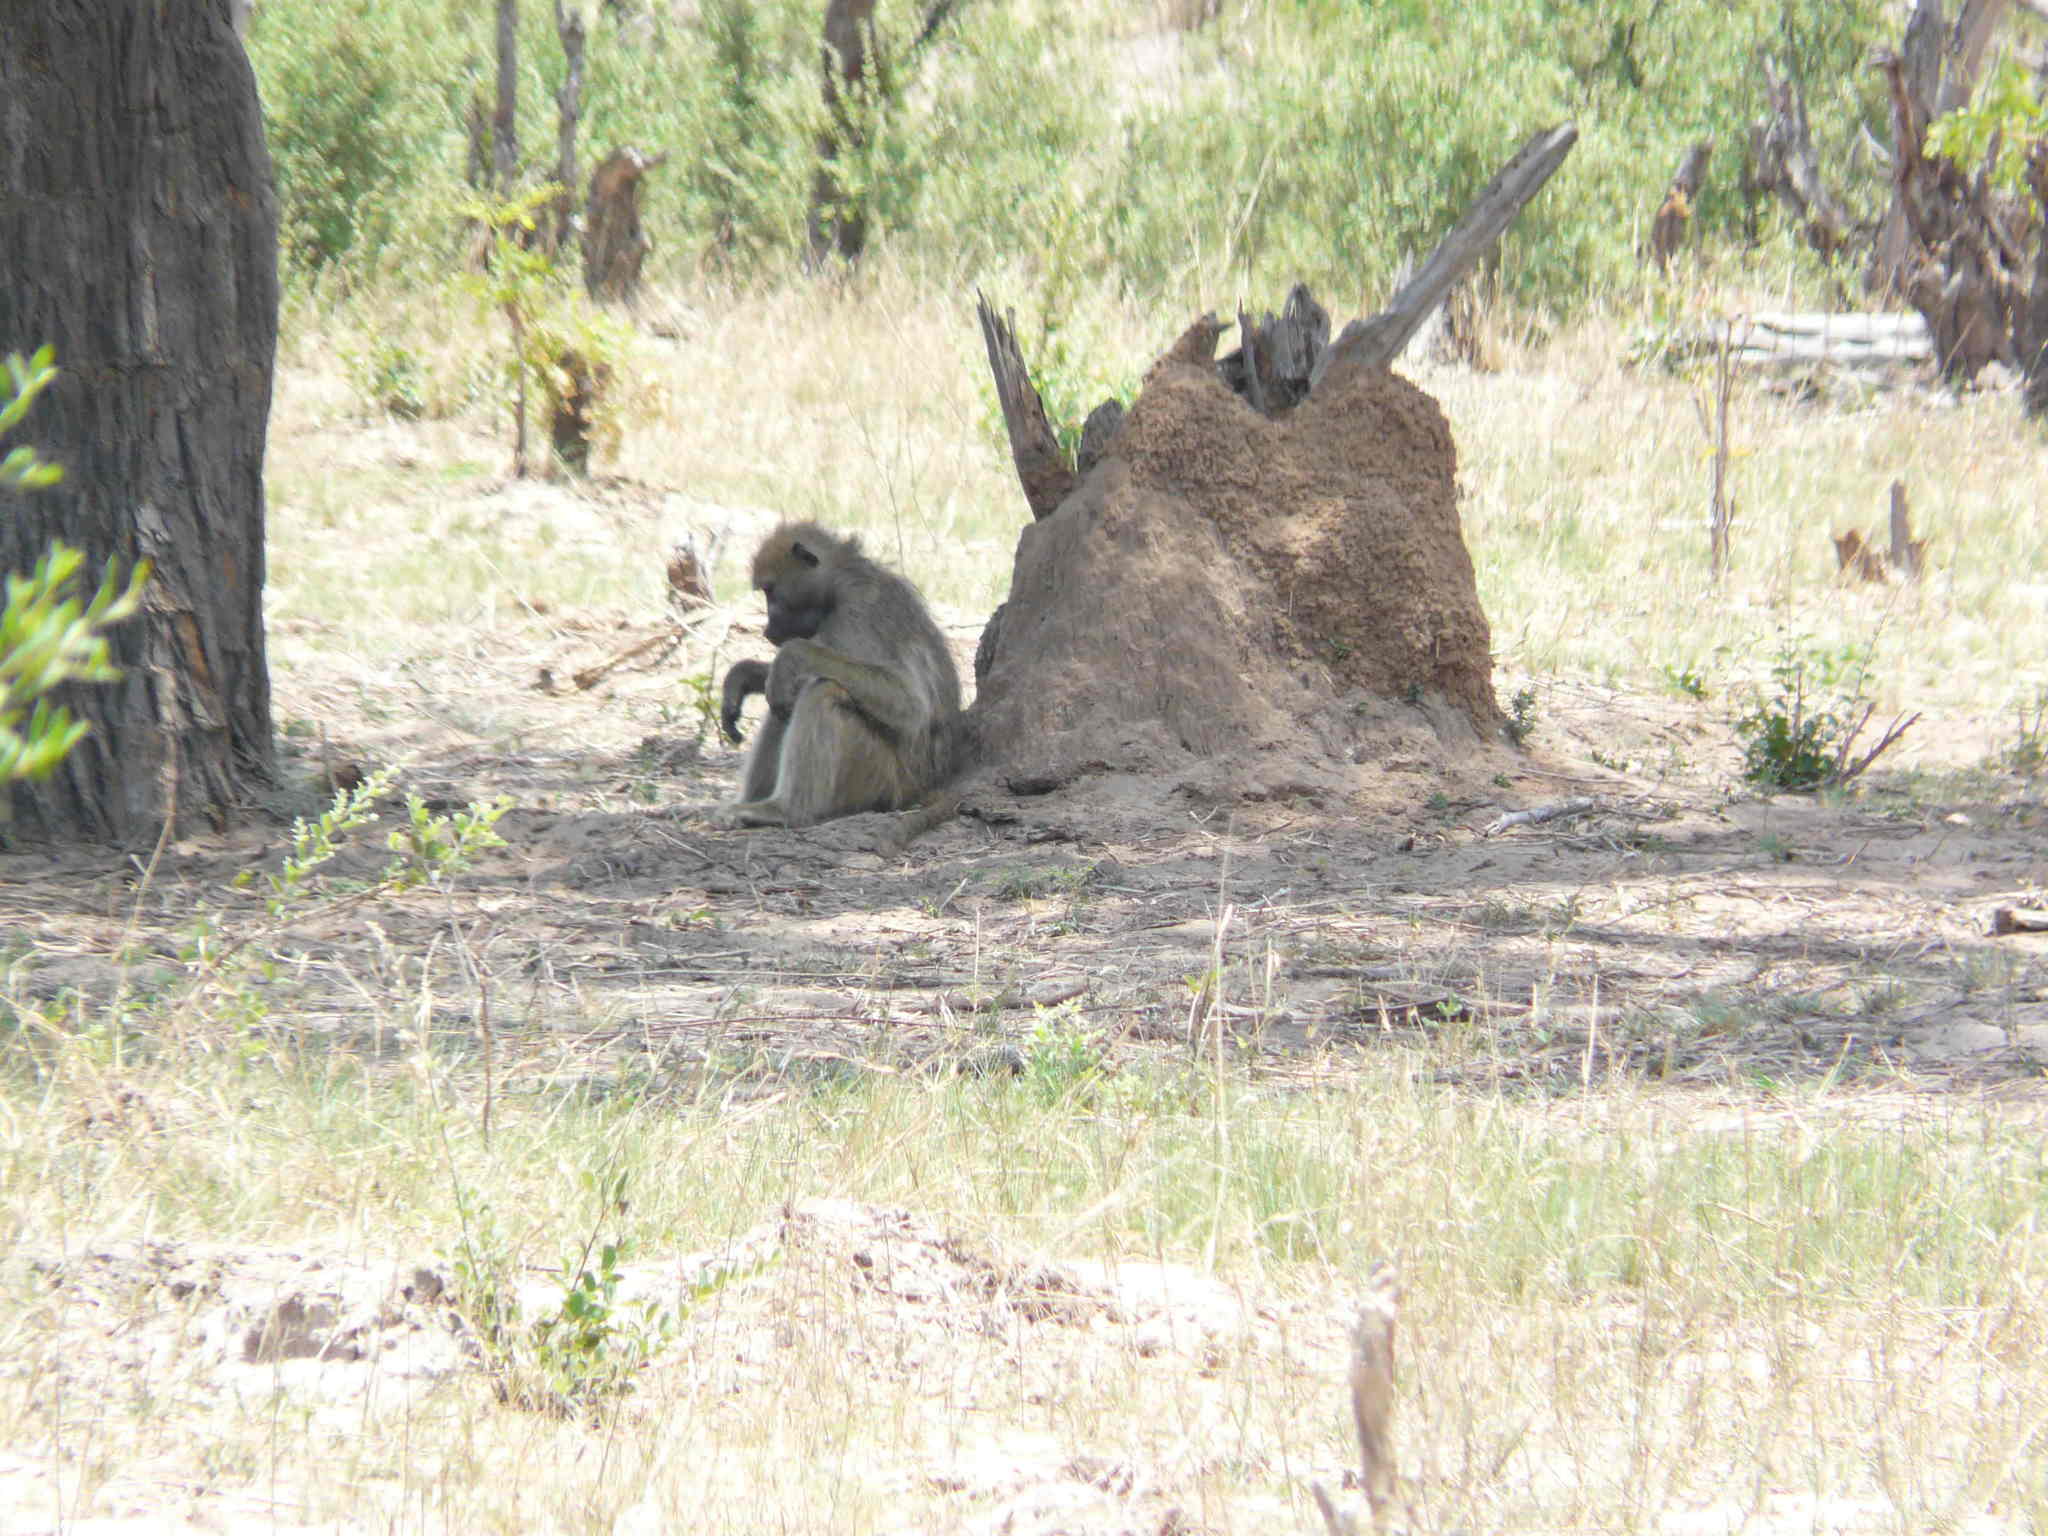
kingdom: Animalia
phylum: Chordata
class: Mammalia
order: Primates
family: Cercopithecidae
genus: Papio
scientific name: Papio ursinus
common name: Chacma baboon
